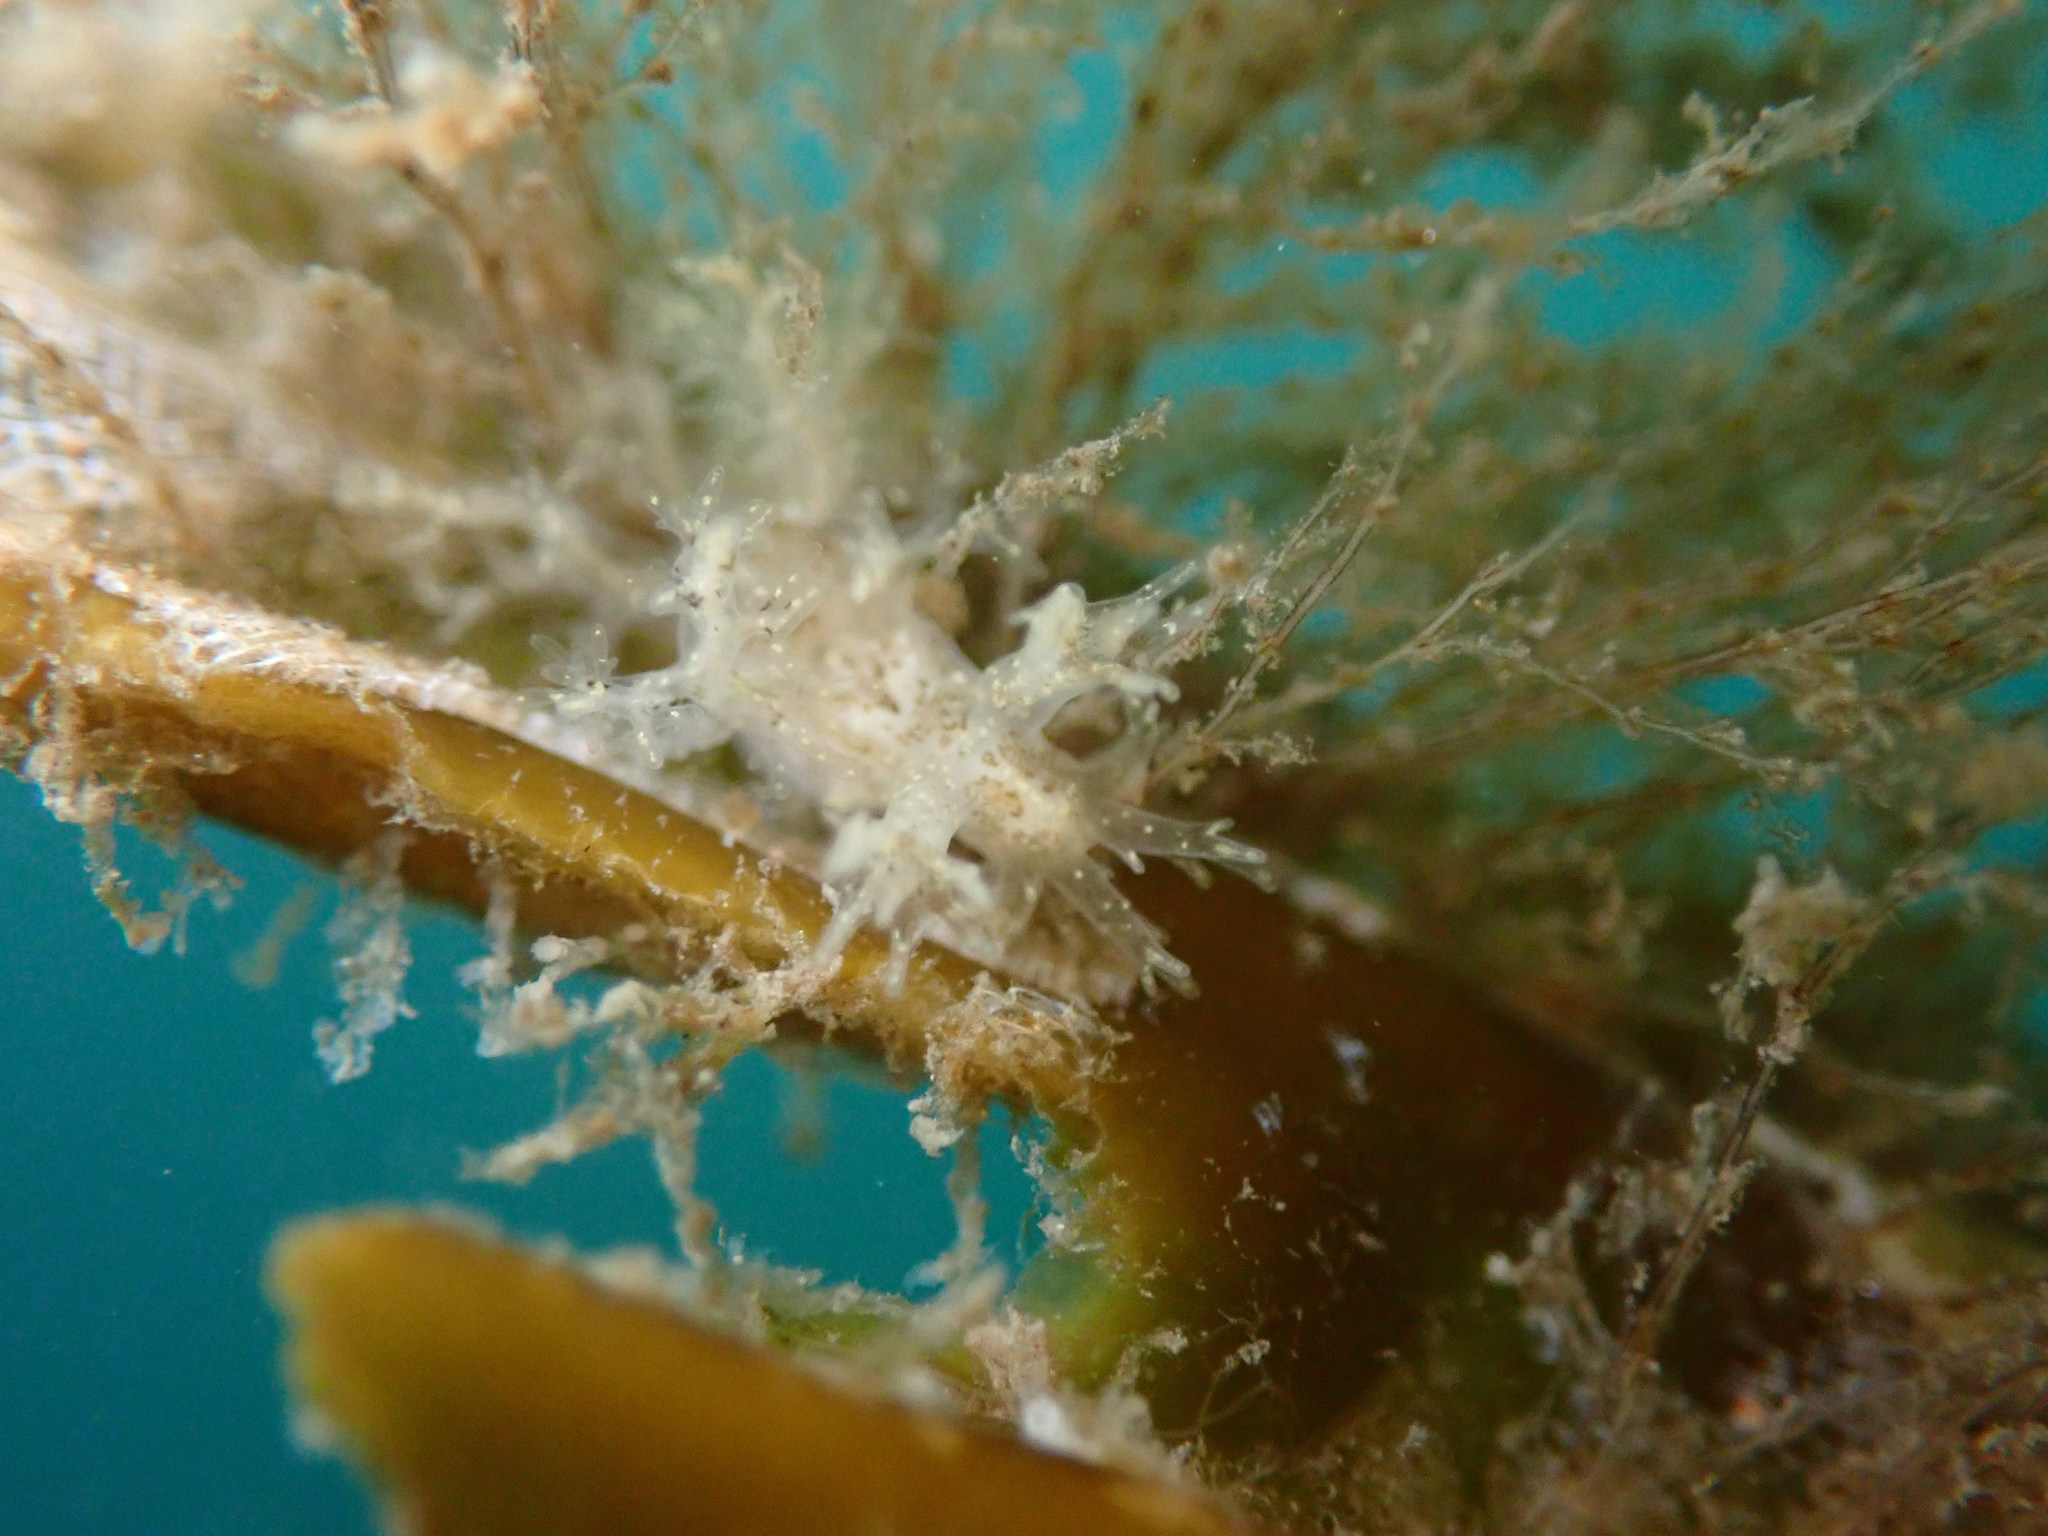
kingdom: Animalia
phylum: Mollusca
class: Gastropoda
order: Nudibranchia
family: Dendronotidae
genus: Dendronotus
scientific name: Dendronotus venustus
